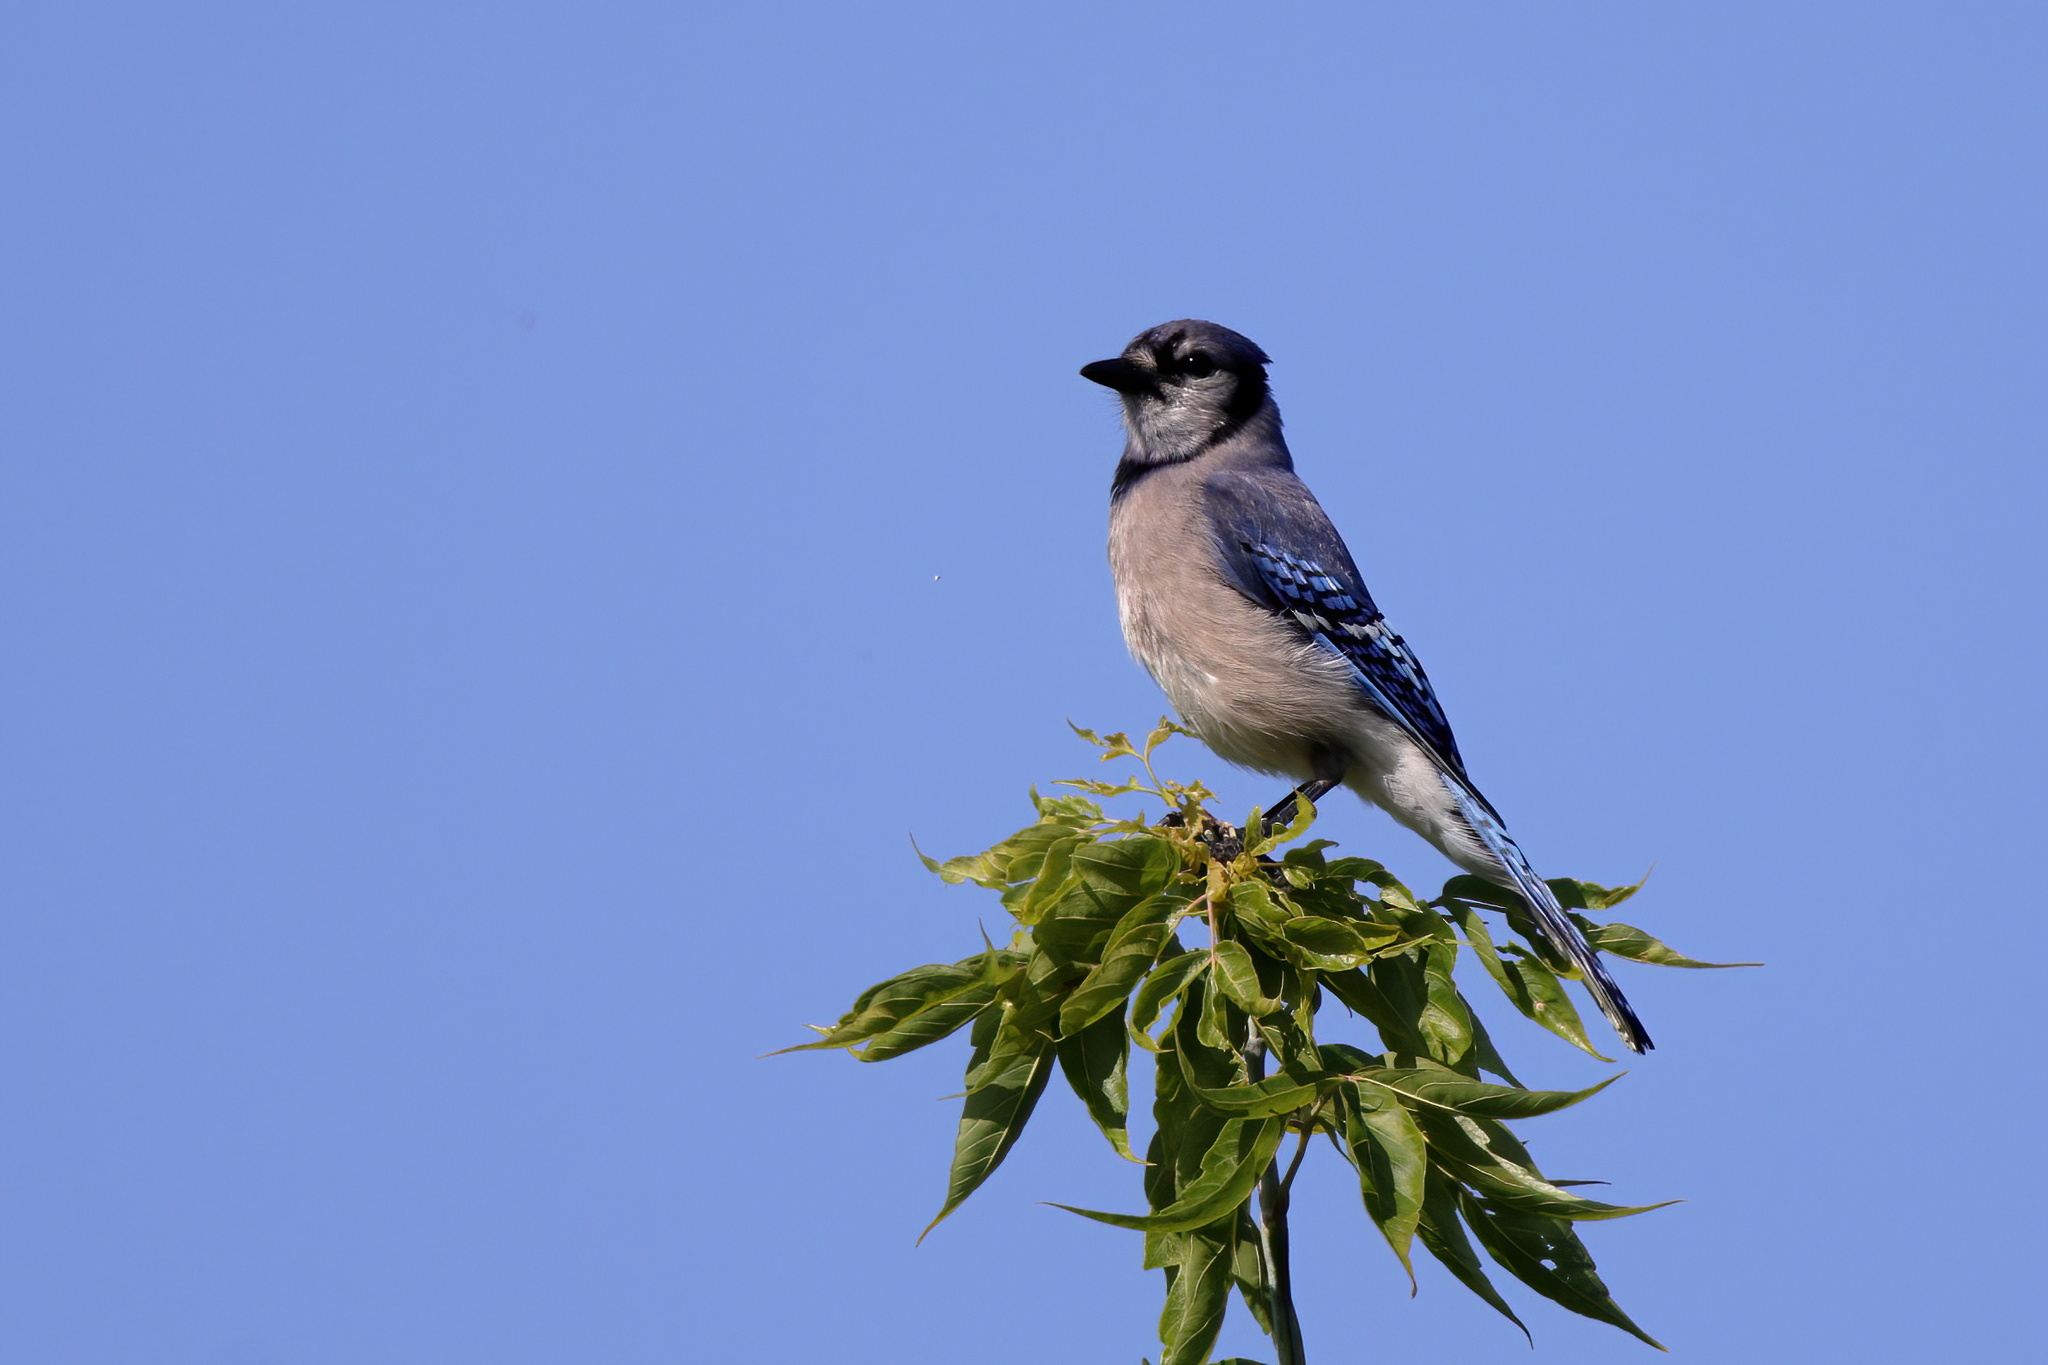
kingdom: Animalia
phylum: Chordata
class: Aves
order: Passeriformes
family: Corvidae
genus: Cyanocitta
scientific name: Cyanocitta cristata
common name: Blue jay
